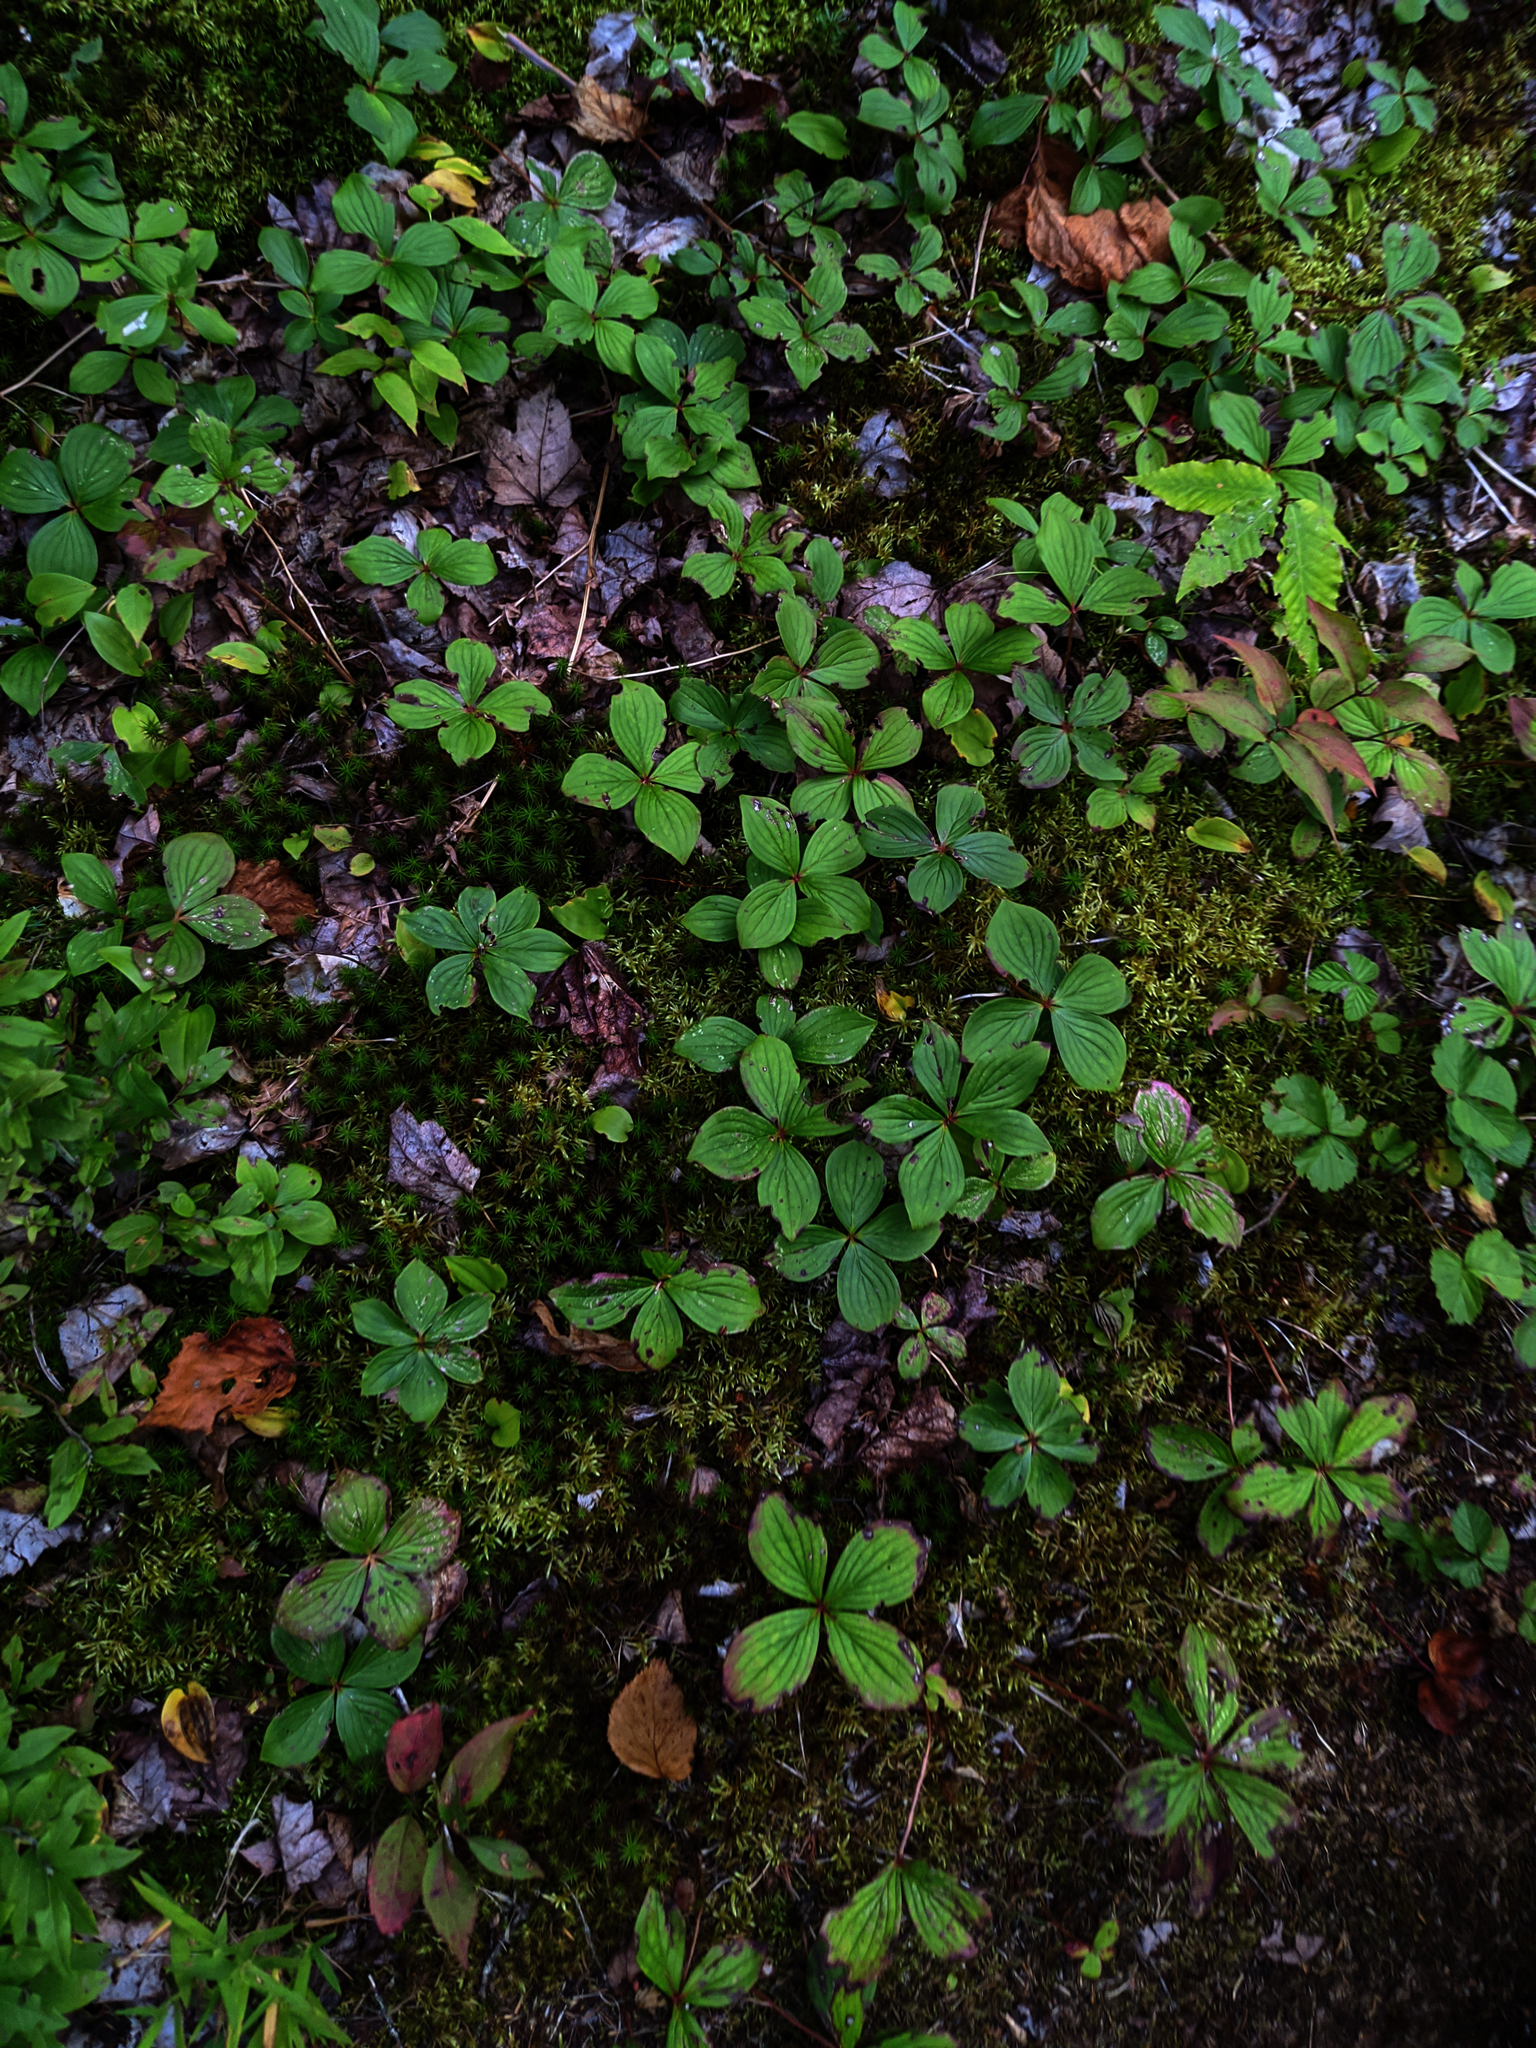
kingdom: Plantae
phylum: Tracheophyta
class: Magnoliopsida
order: Cornales
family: Cornaceae
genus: Cornus
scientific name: Cornus canadensis
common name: Creeping dogwood
